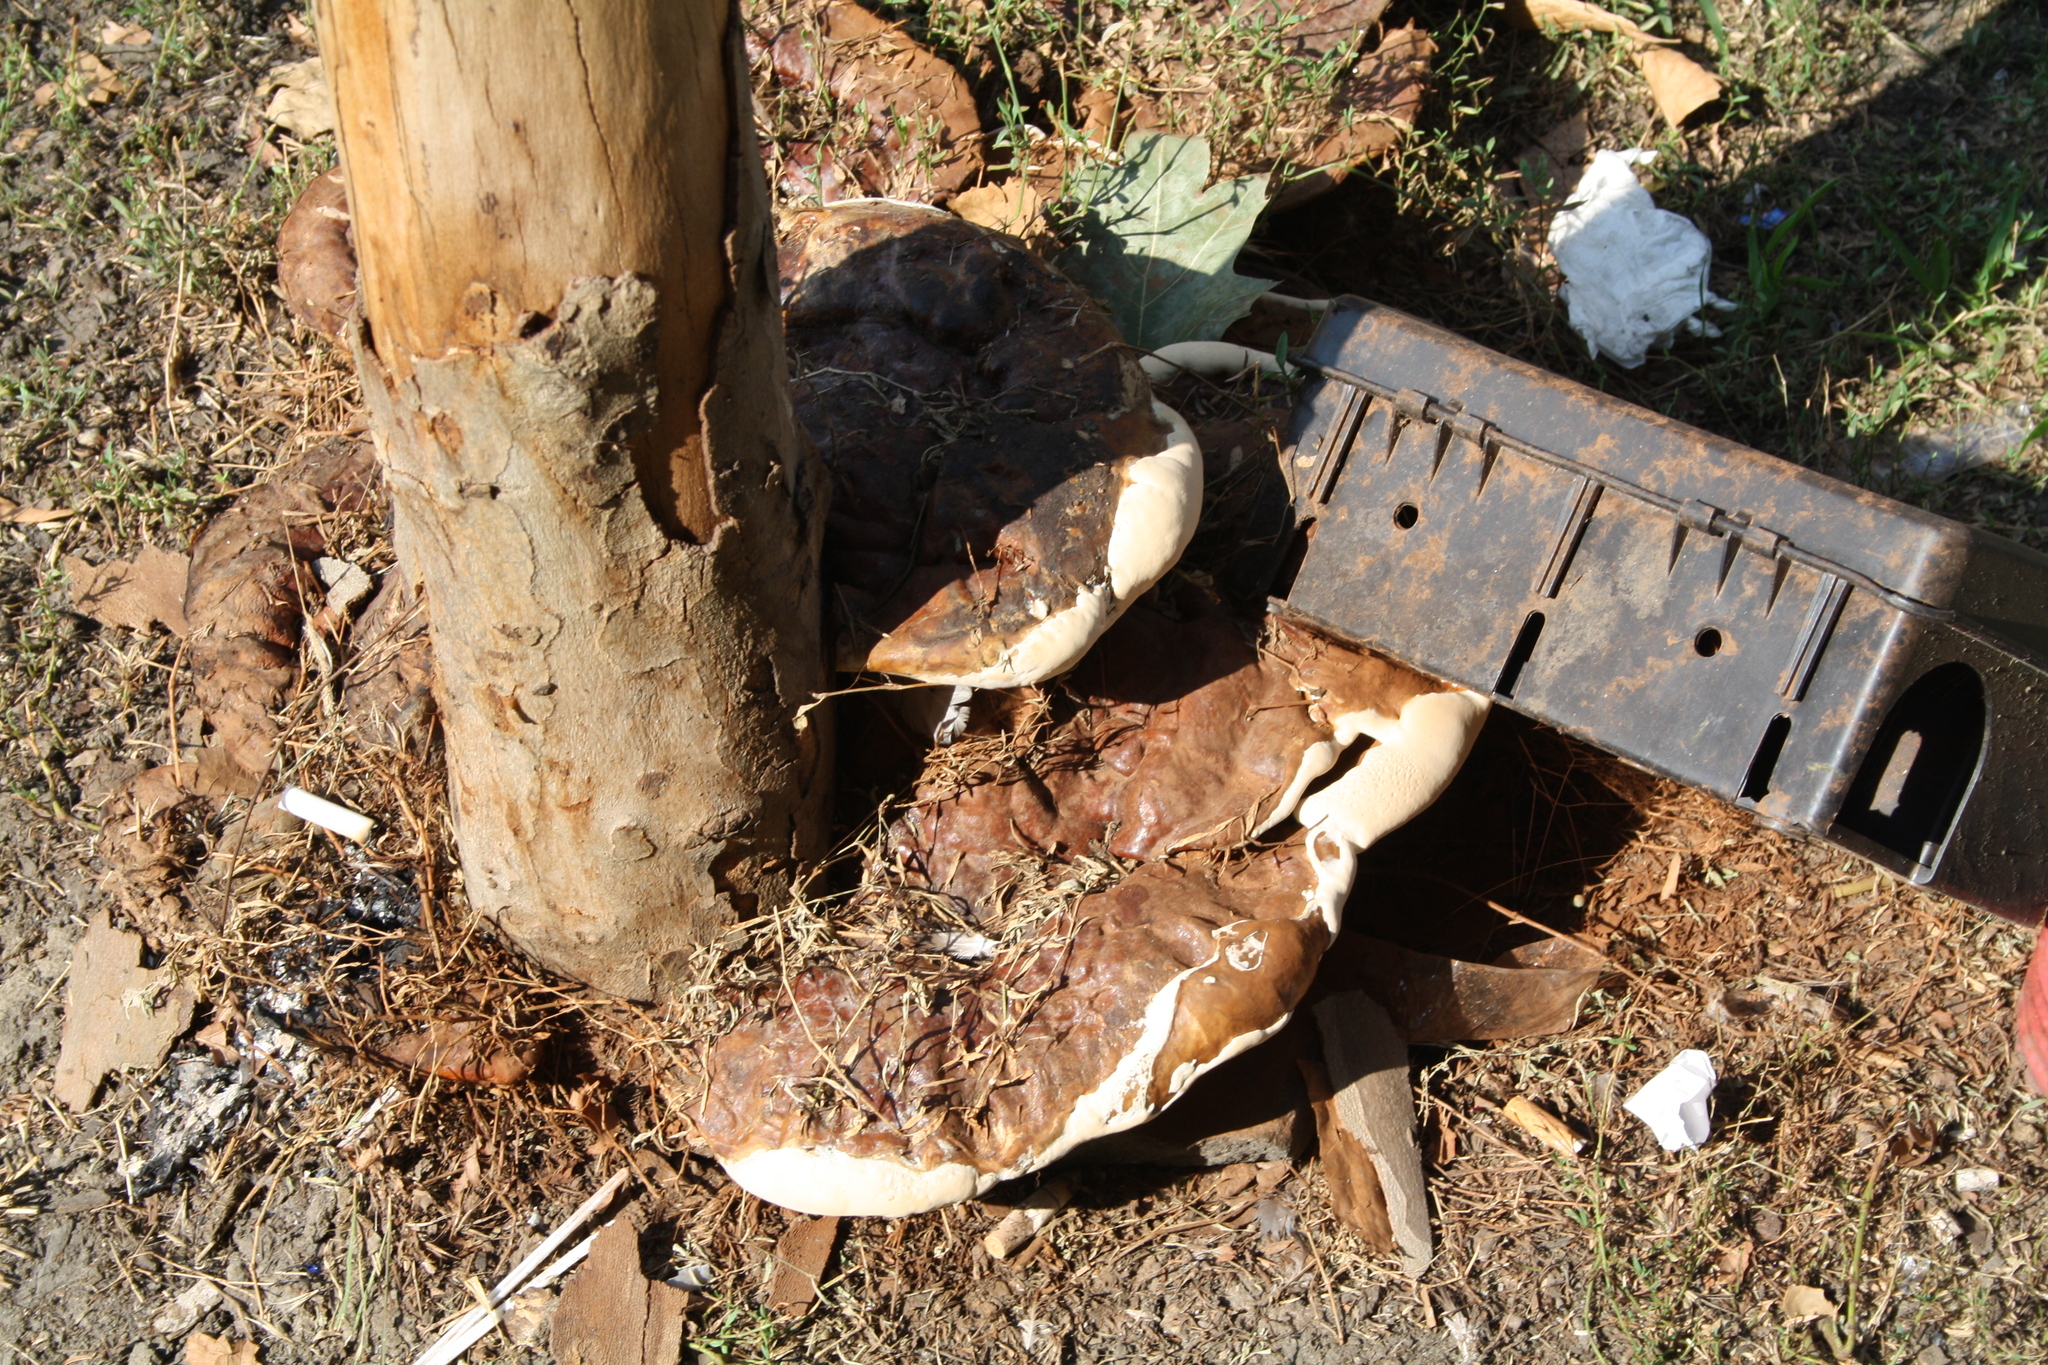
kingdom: Fungi
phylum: Basidiomycota
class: Agaricomycetes
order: Polyporales
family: Polyporaceae
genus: Ganoderma
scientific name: Ganoderma resinaceum
